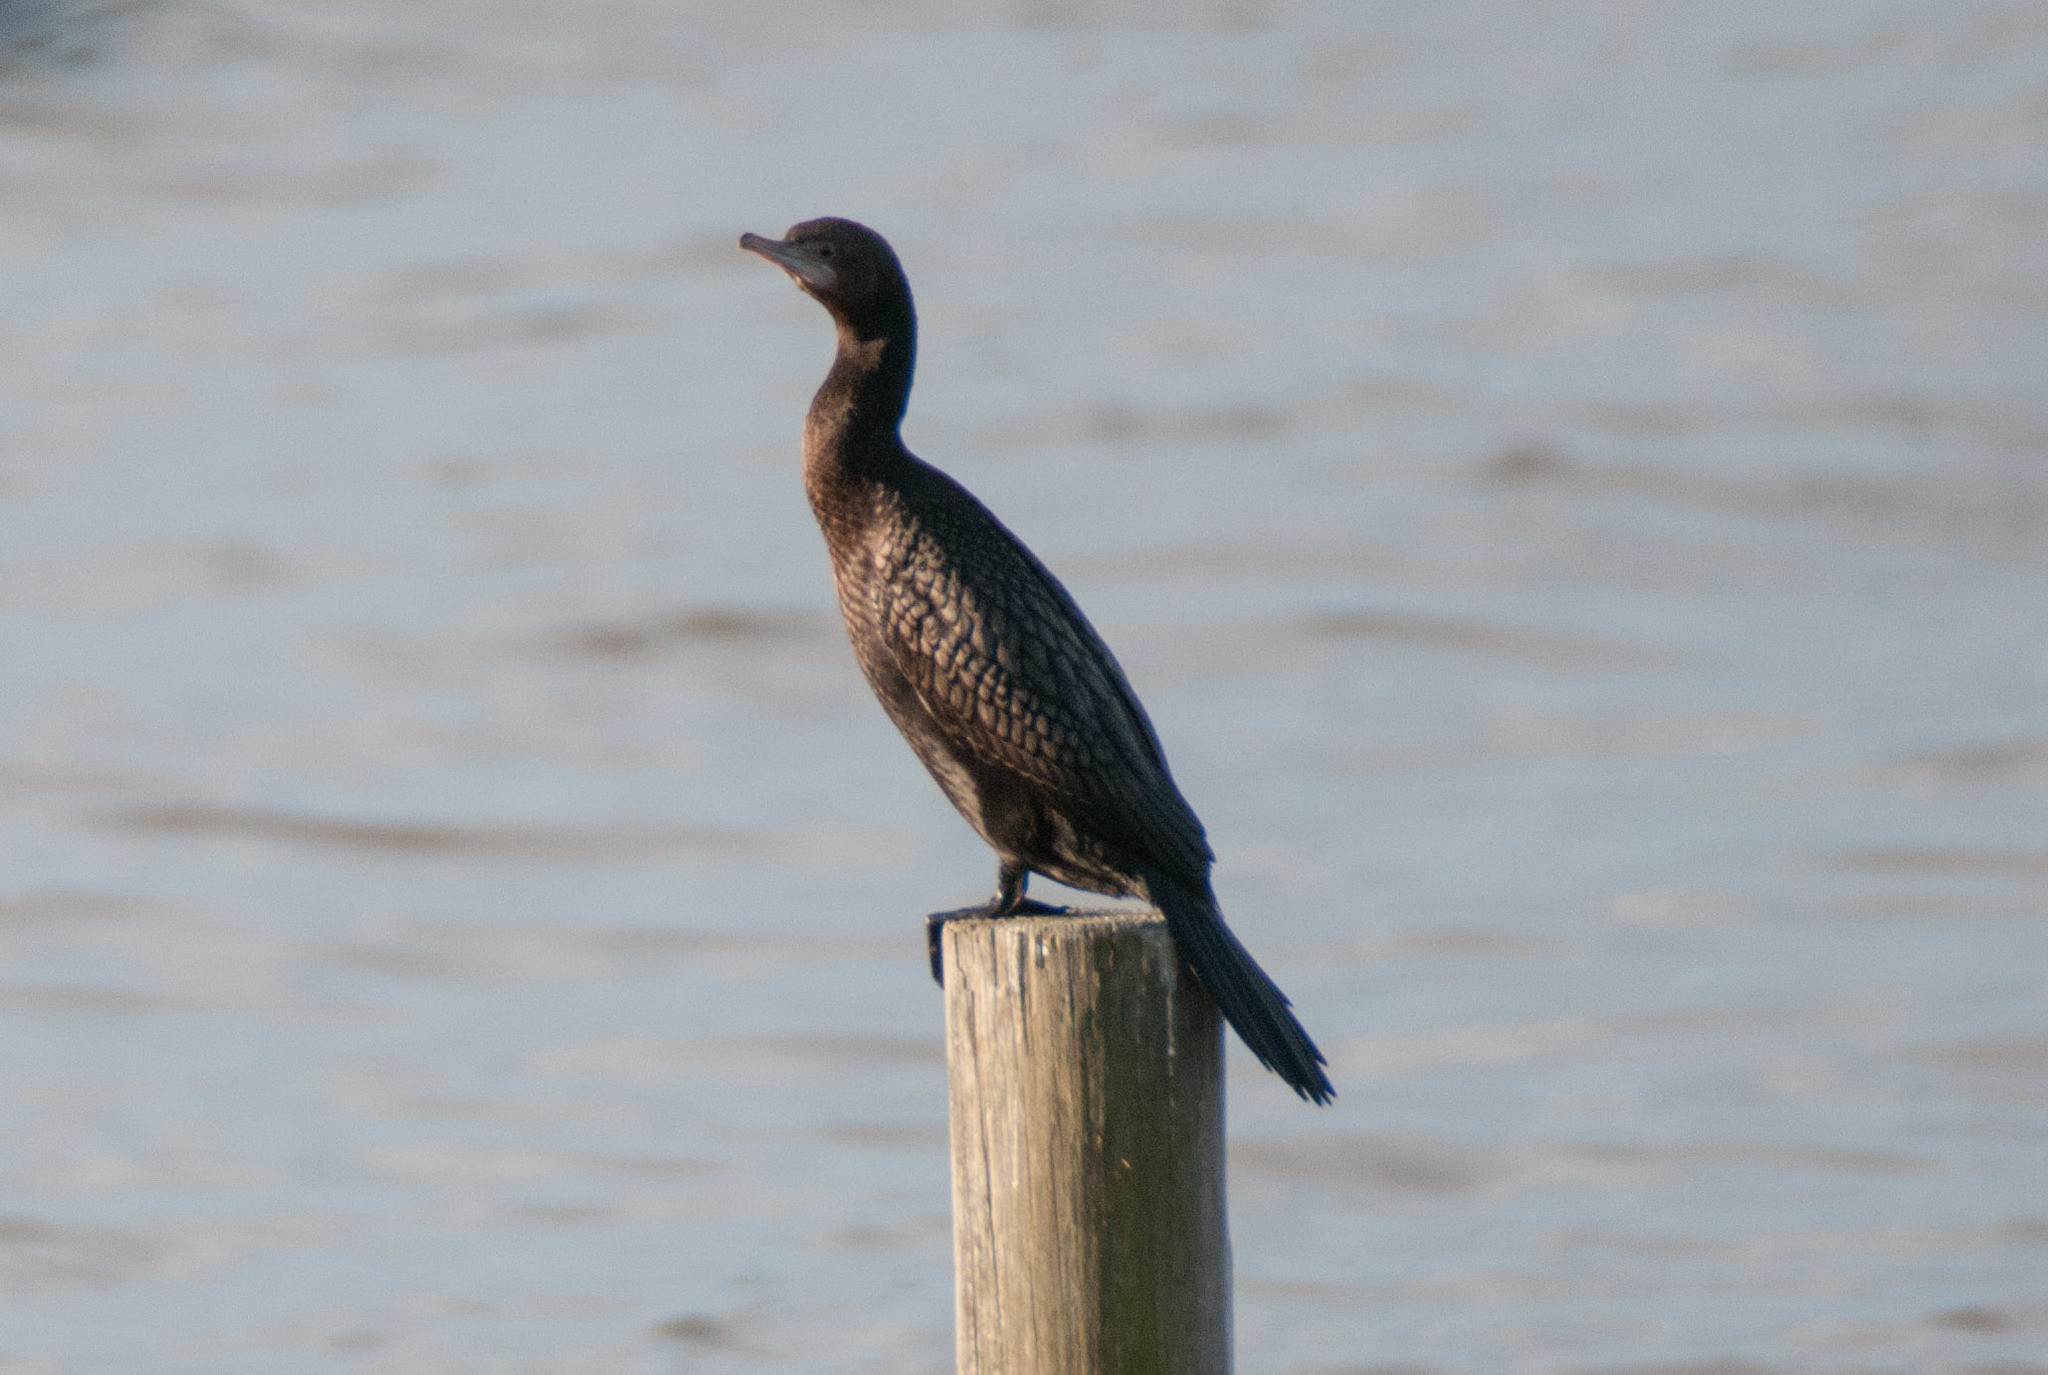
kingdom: Animalia
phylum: Chordata
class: Aves
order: Suliformes
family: Phalacrocoracidae
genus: Phalacrocorax
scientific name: Phalacrocorax sulcirostris
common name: Little black cormorant
